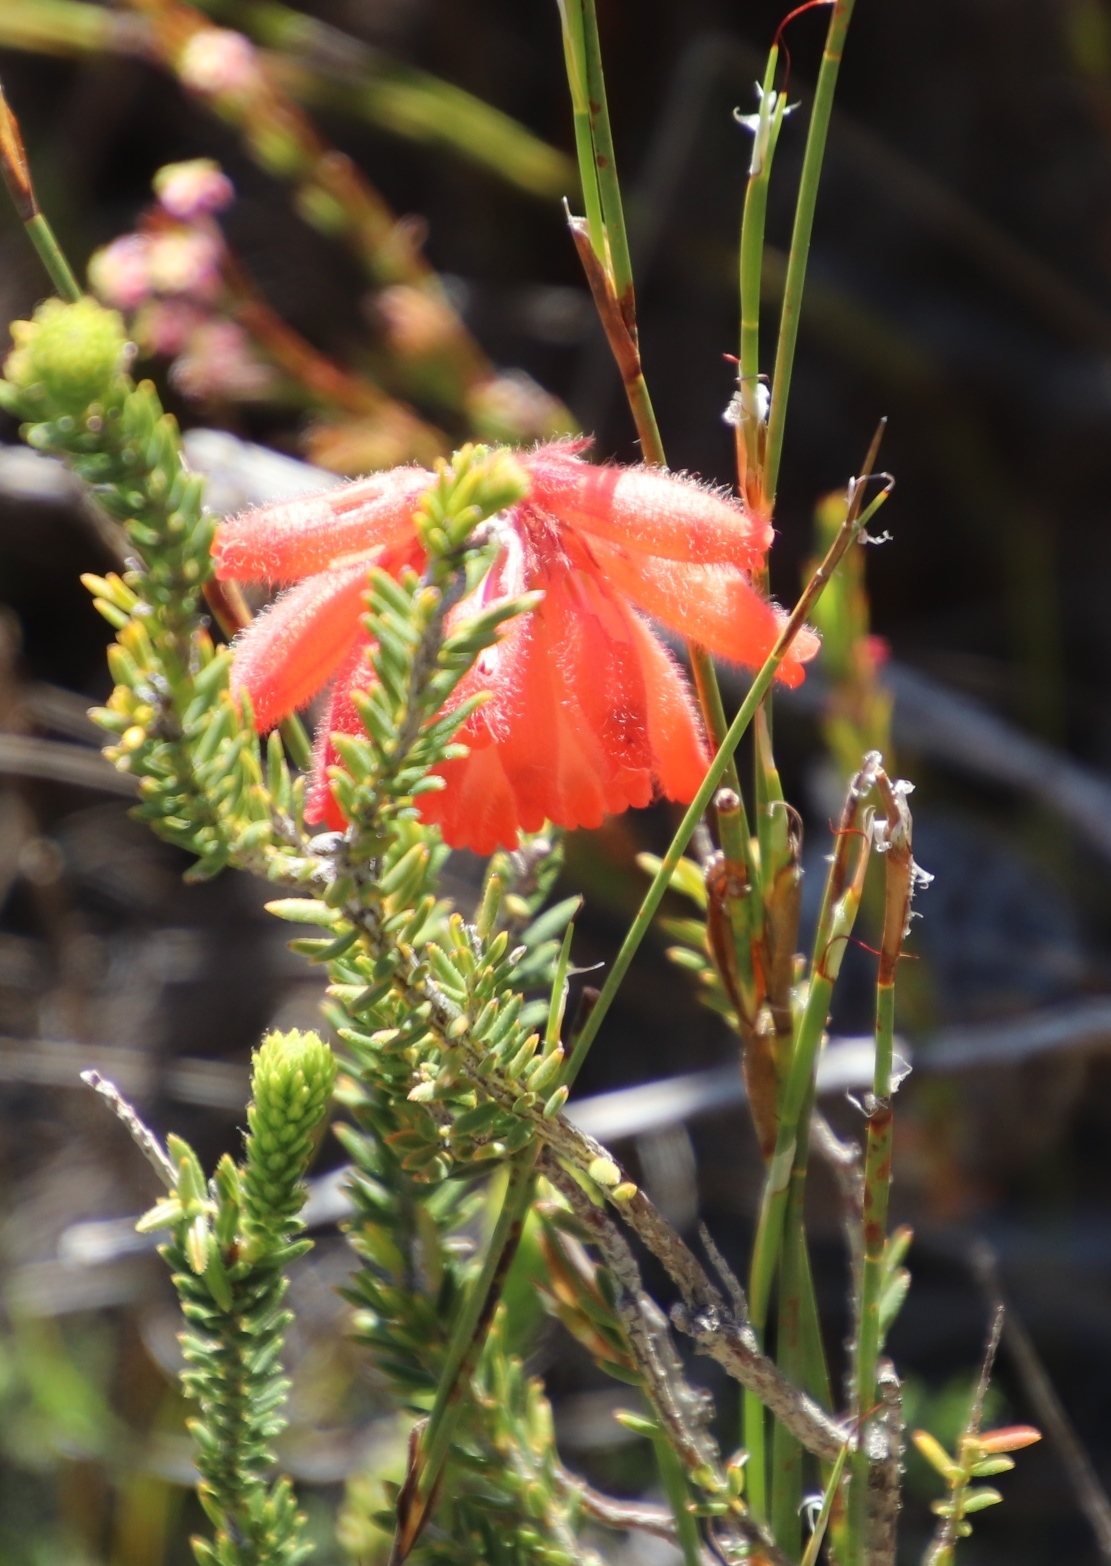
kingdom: Plantae
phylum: Tracheophyta
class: Magnoliopsida
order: Ericales
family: Ericaceae
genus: Erica
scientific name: Erica cerinthoides
